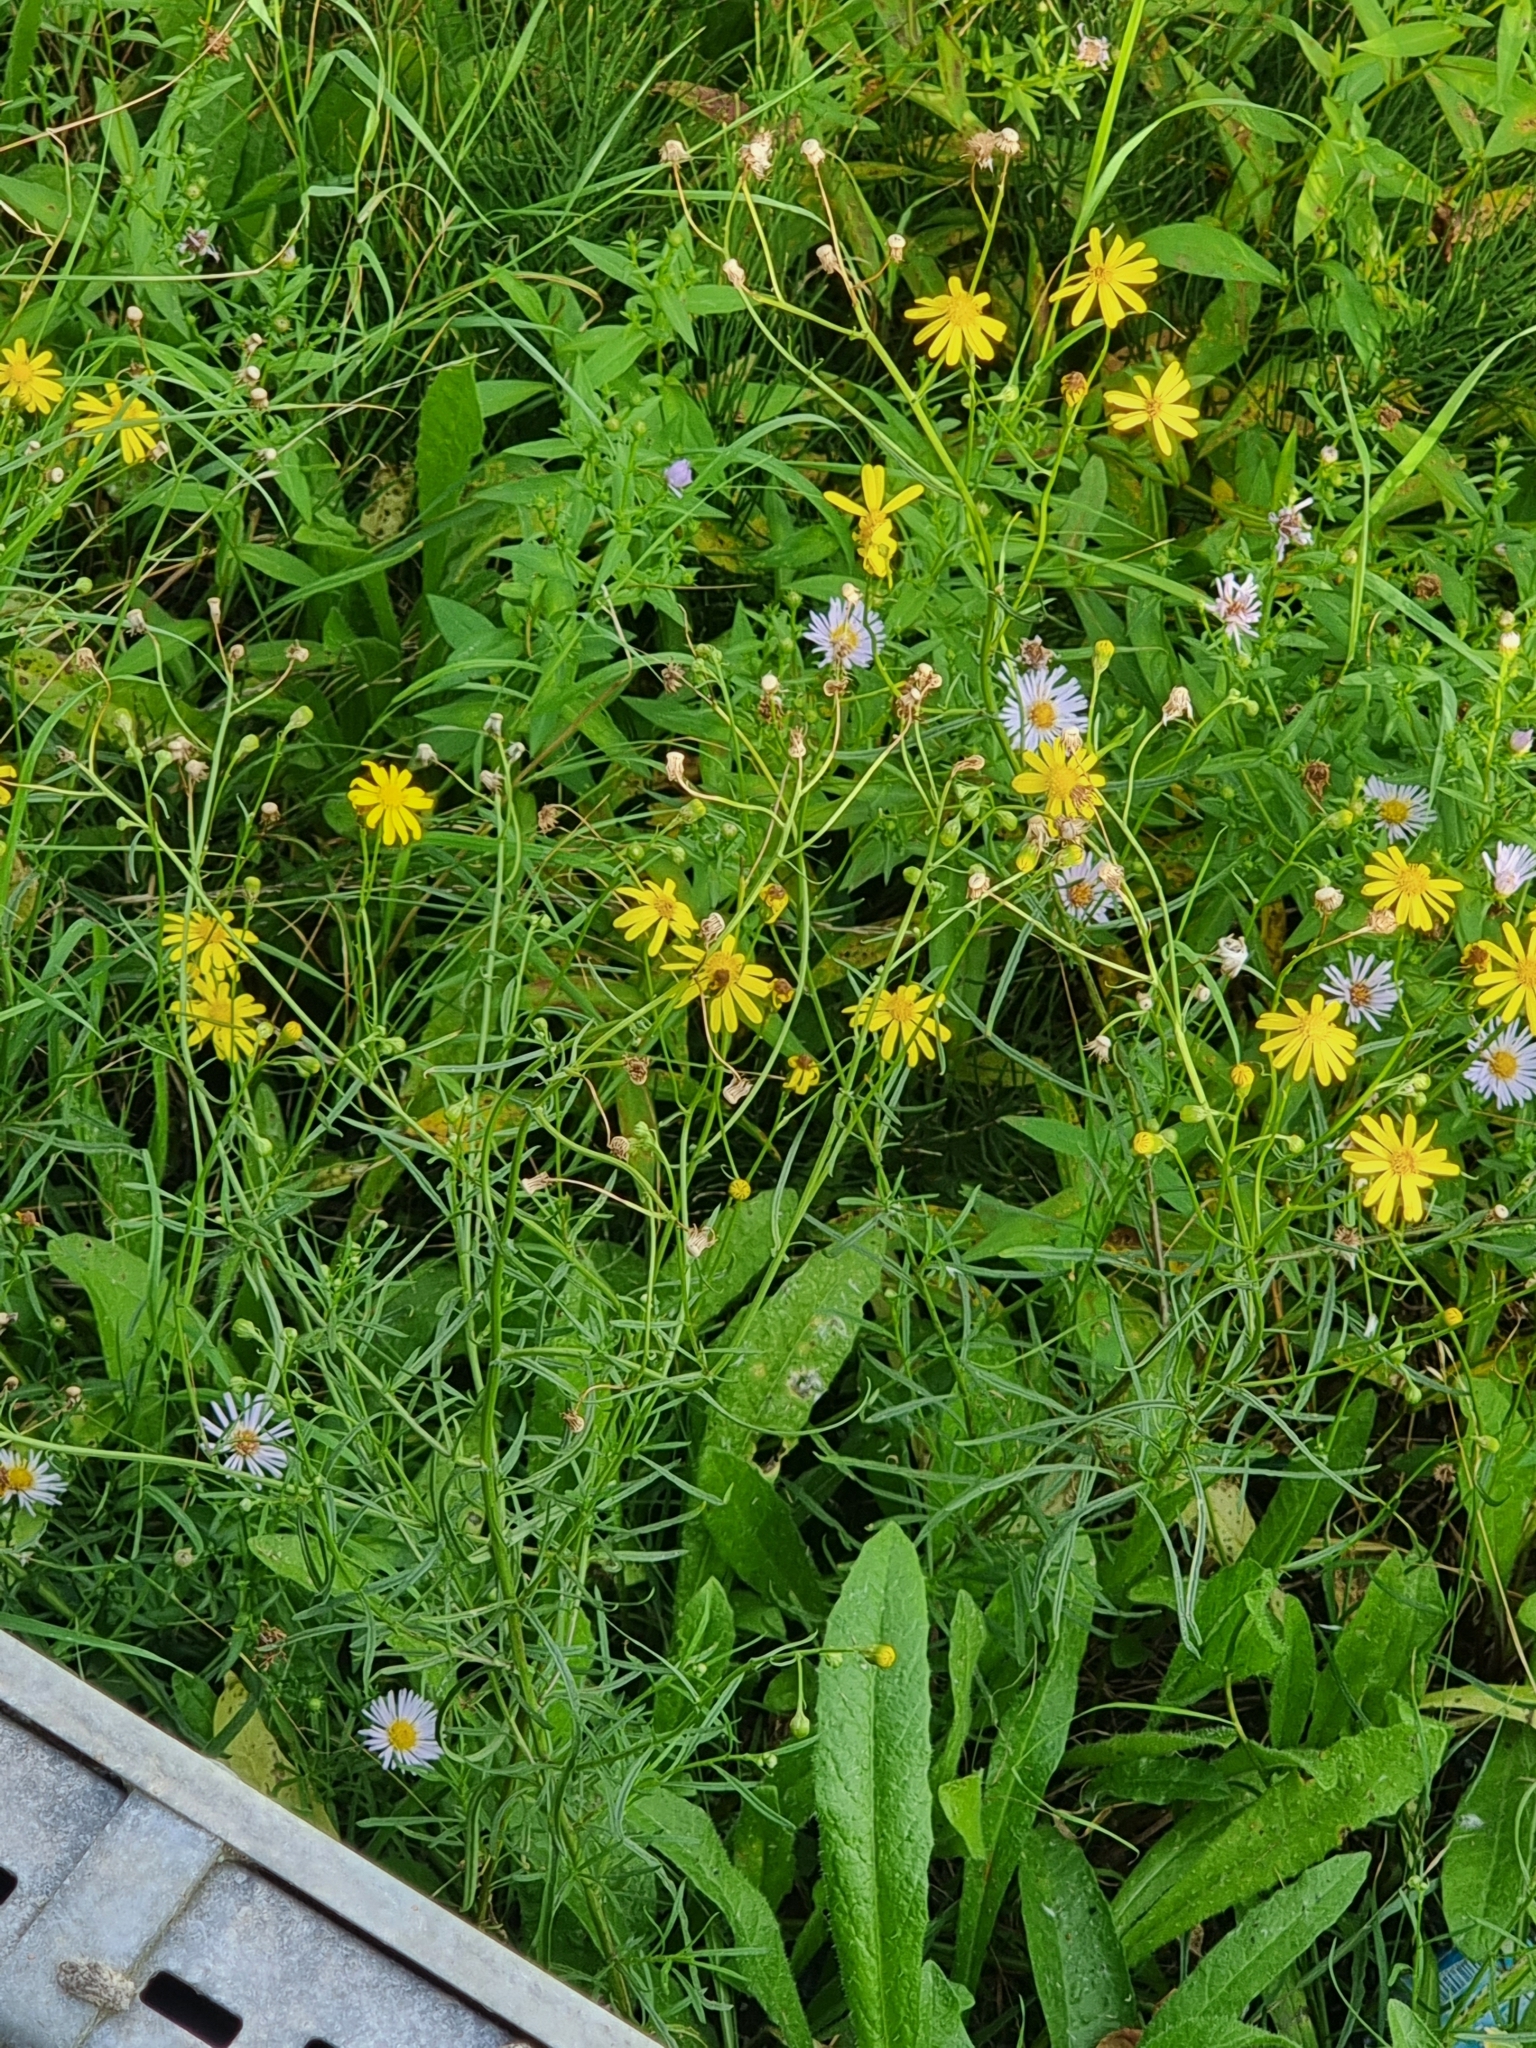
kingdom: Plantae
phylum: Tracheophyta
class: Magnoliopsida
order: Asterales
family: Asteraceae
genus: Senecio
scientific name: Senecio inaequidens
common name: Narrow-leaved ragwort
